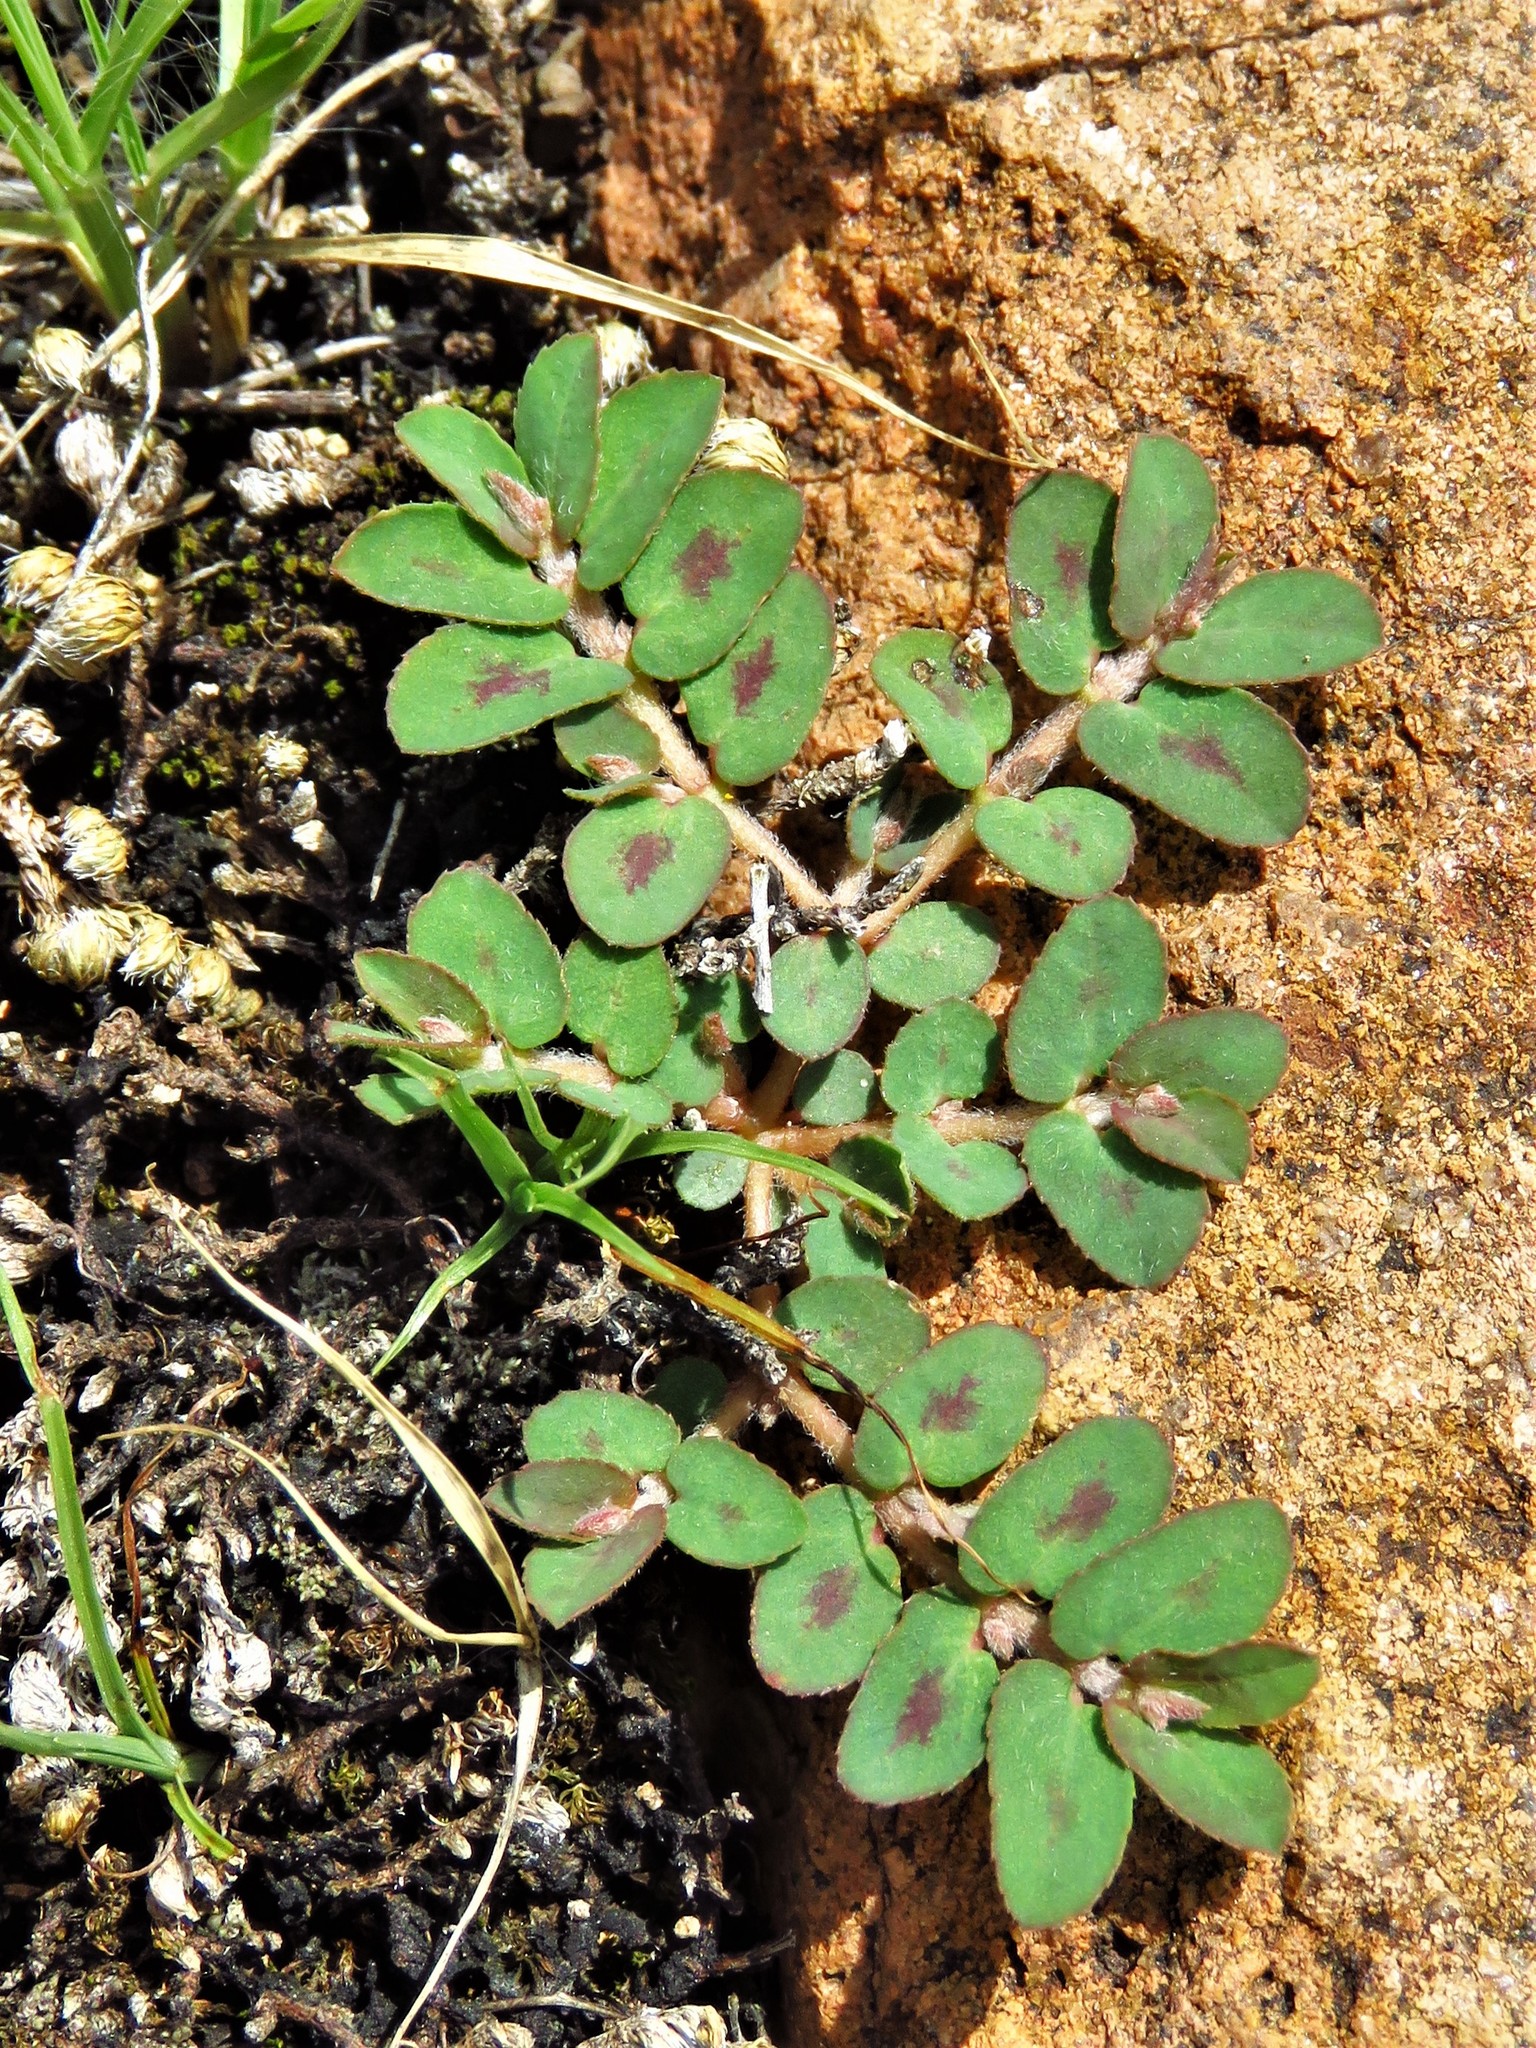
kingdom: Plantae
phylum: Tracheophyta
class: Magnoliopsida
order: Malpighiales
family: Euphorbiaceae
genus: Euphorbia
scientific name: Euphorbia maculata
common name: Spotted spurge
